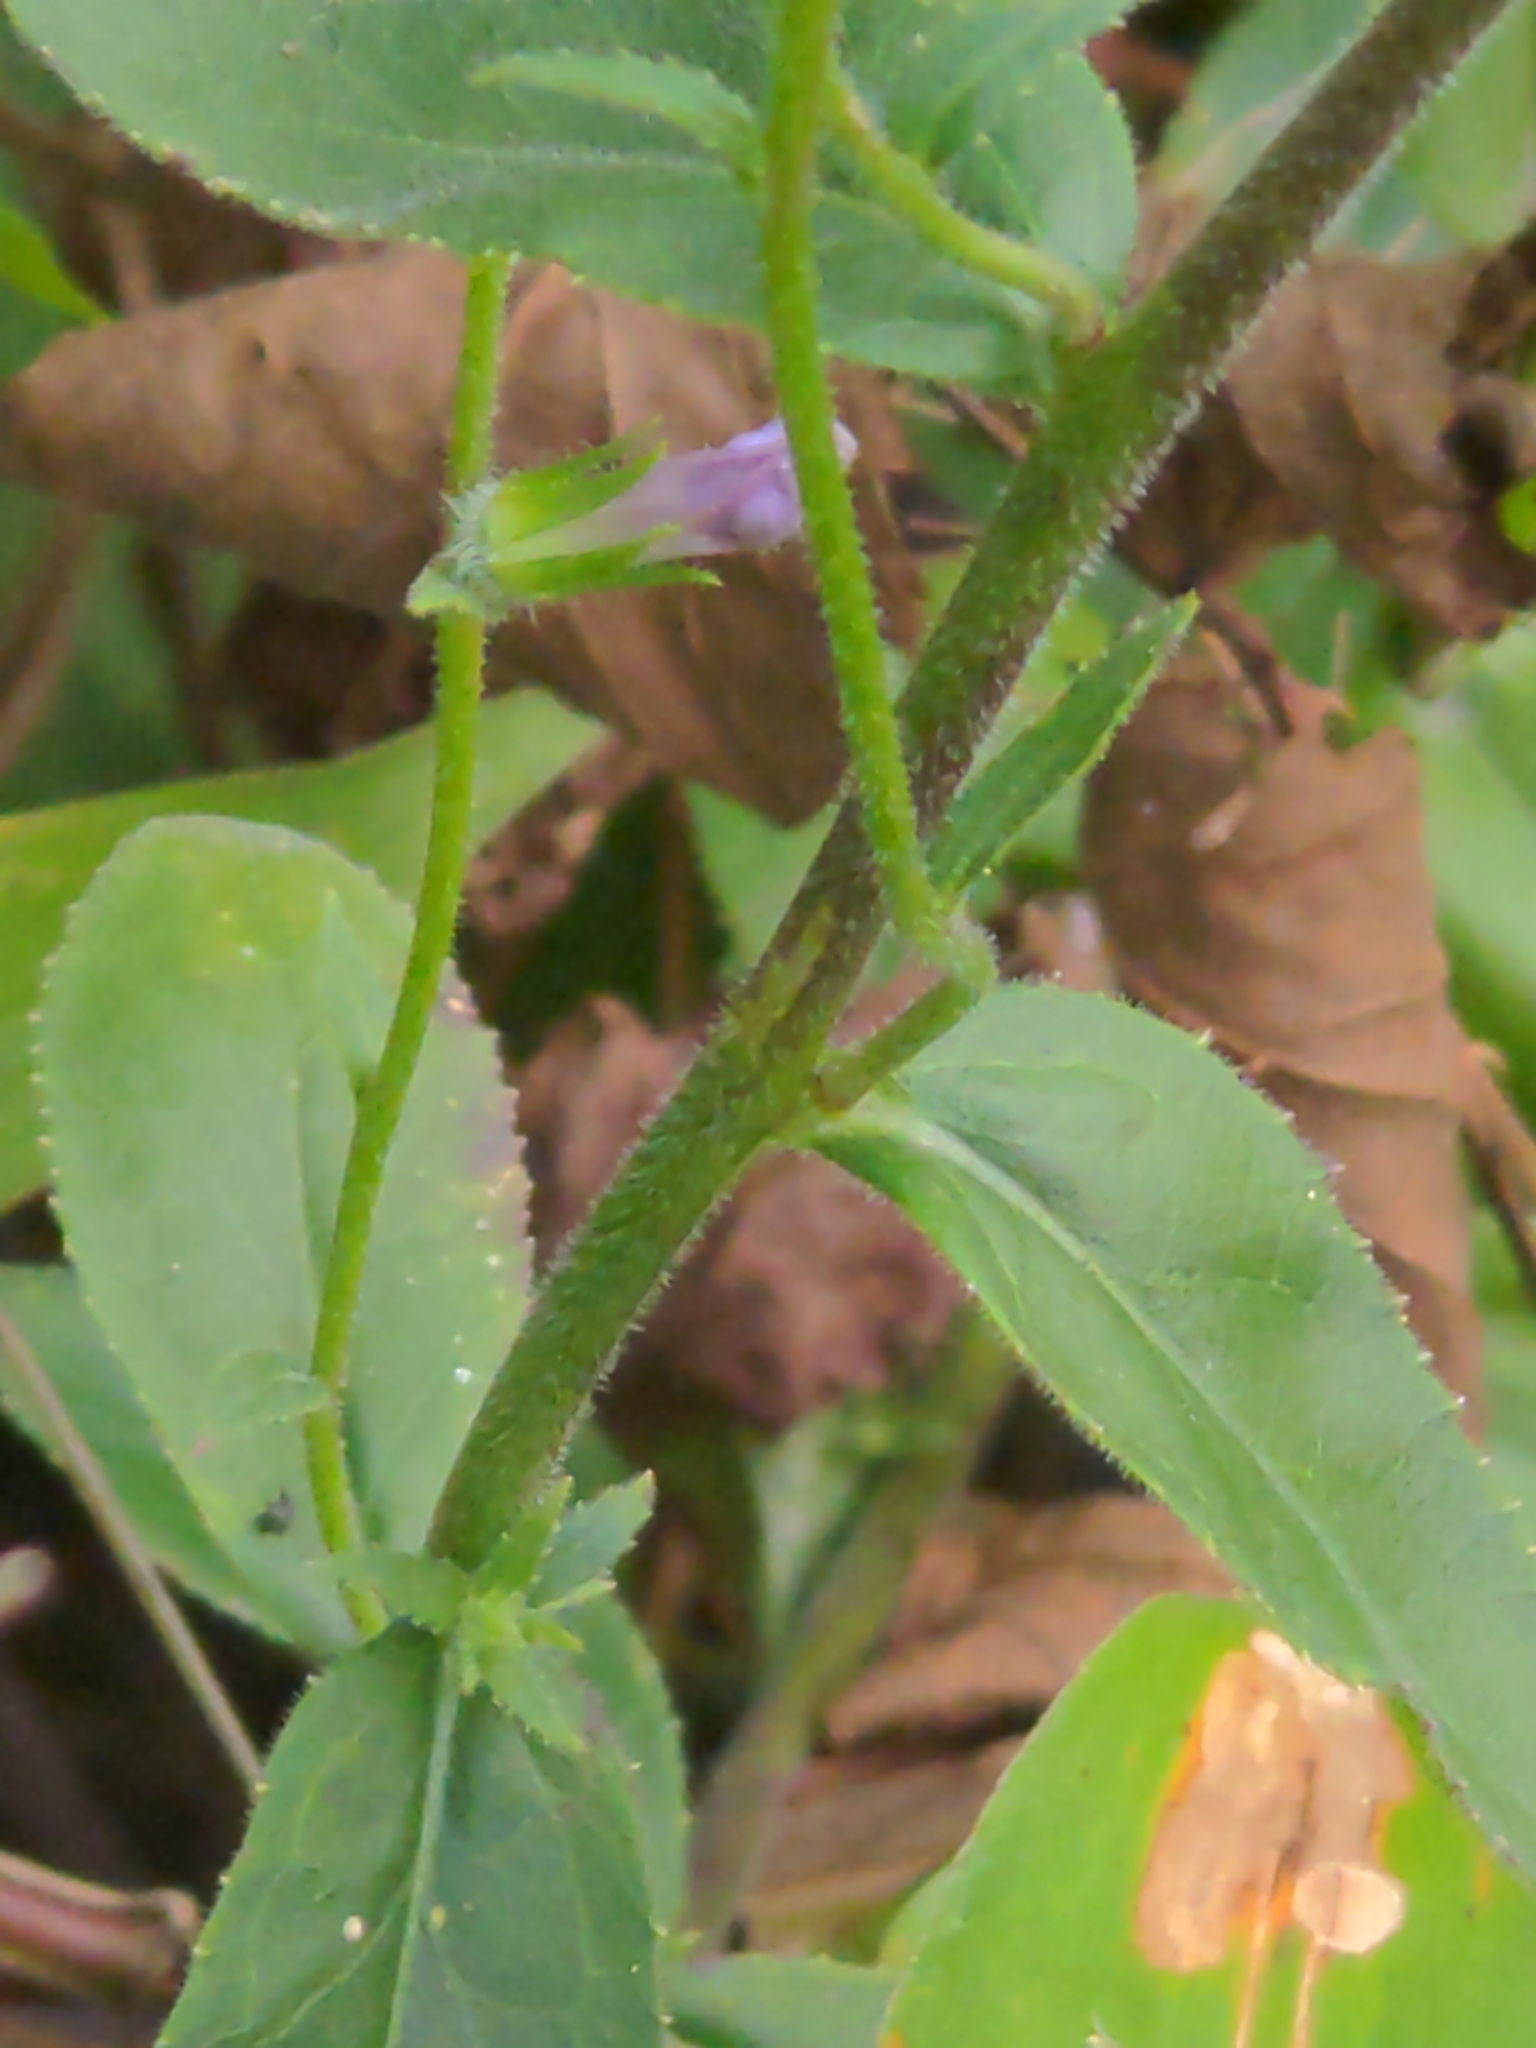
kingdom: Plantae
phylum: Tracheophyta
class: Magnoliopsida
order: Asterales
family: Campanulaceae
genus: Lobelia
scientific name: Lobelia puberula
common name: Purple dewdrop
